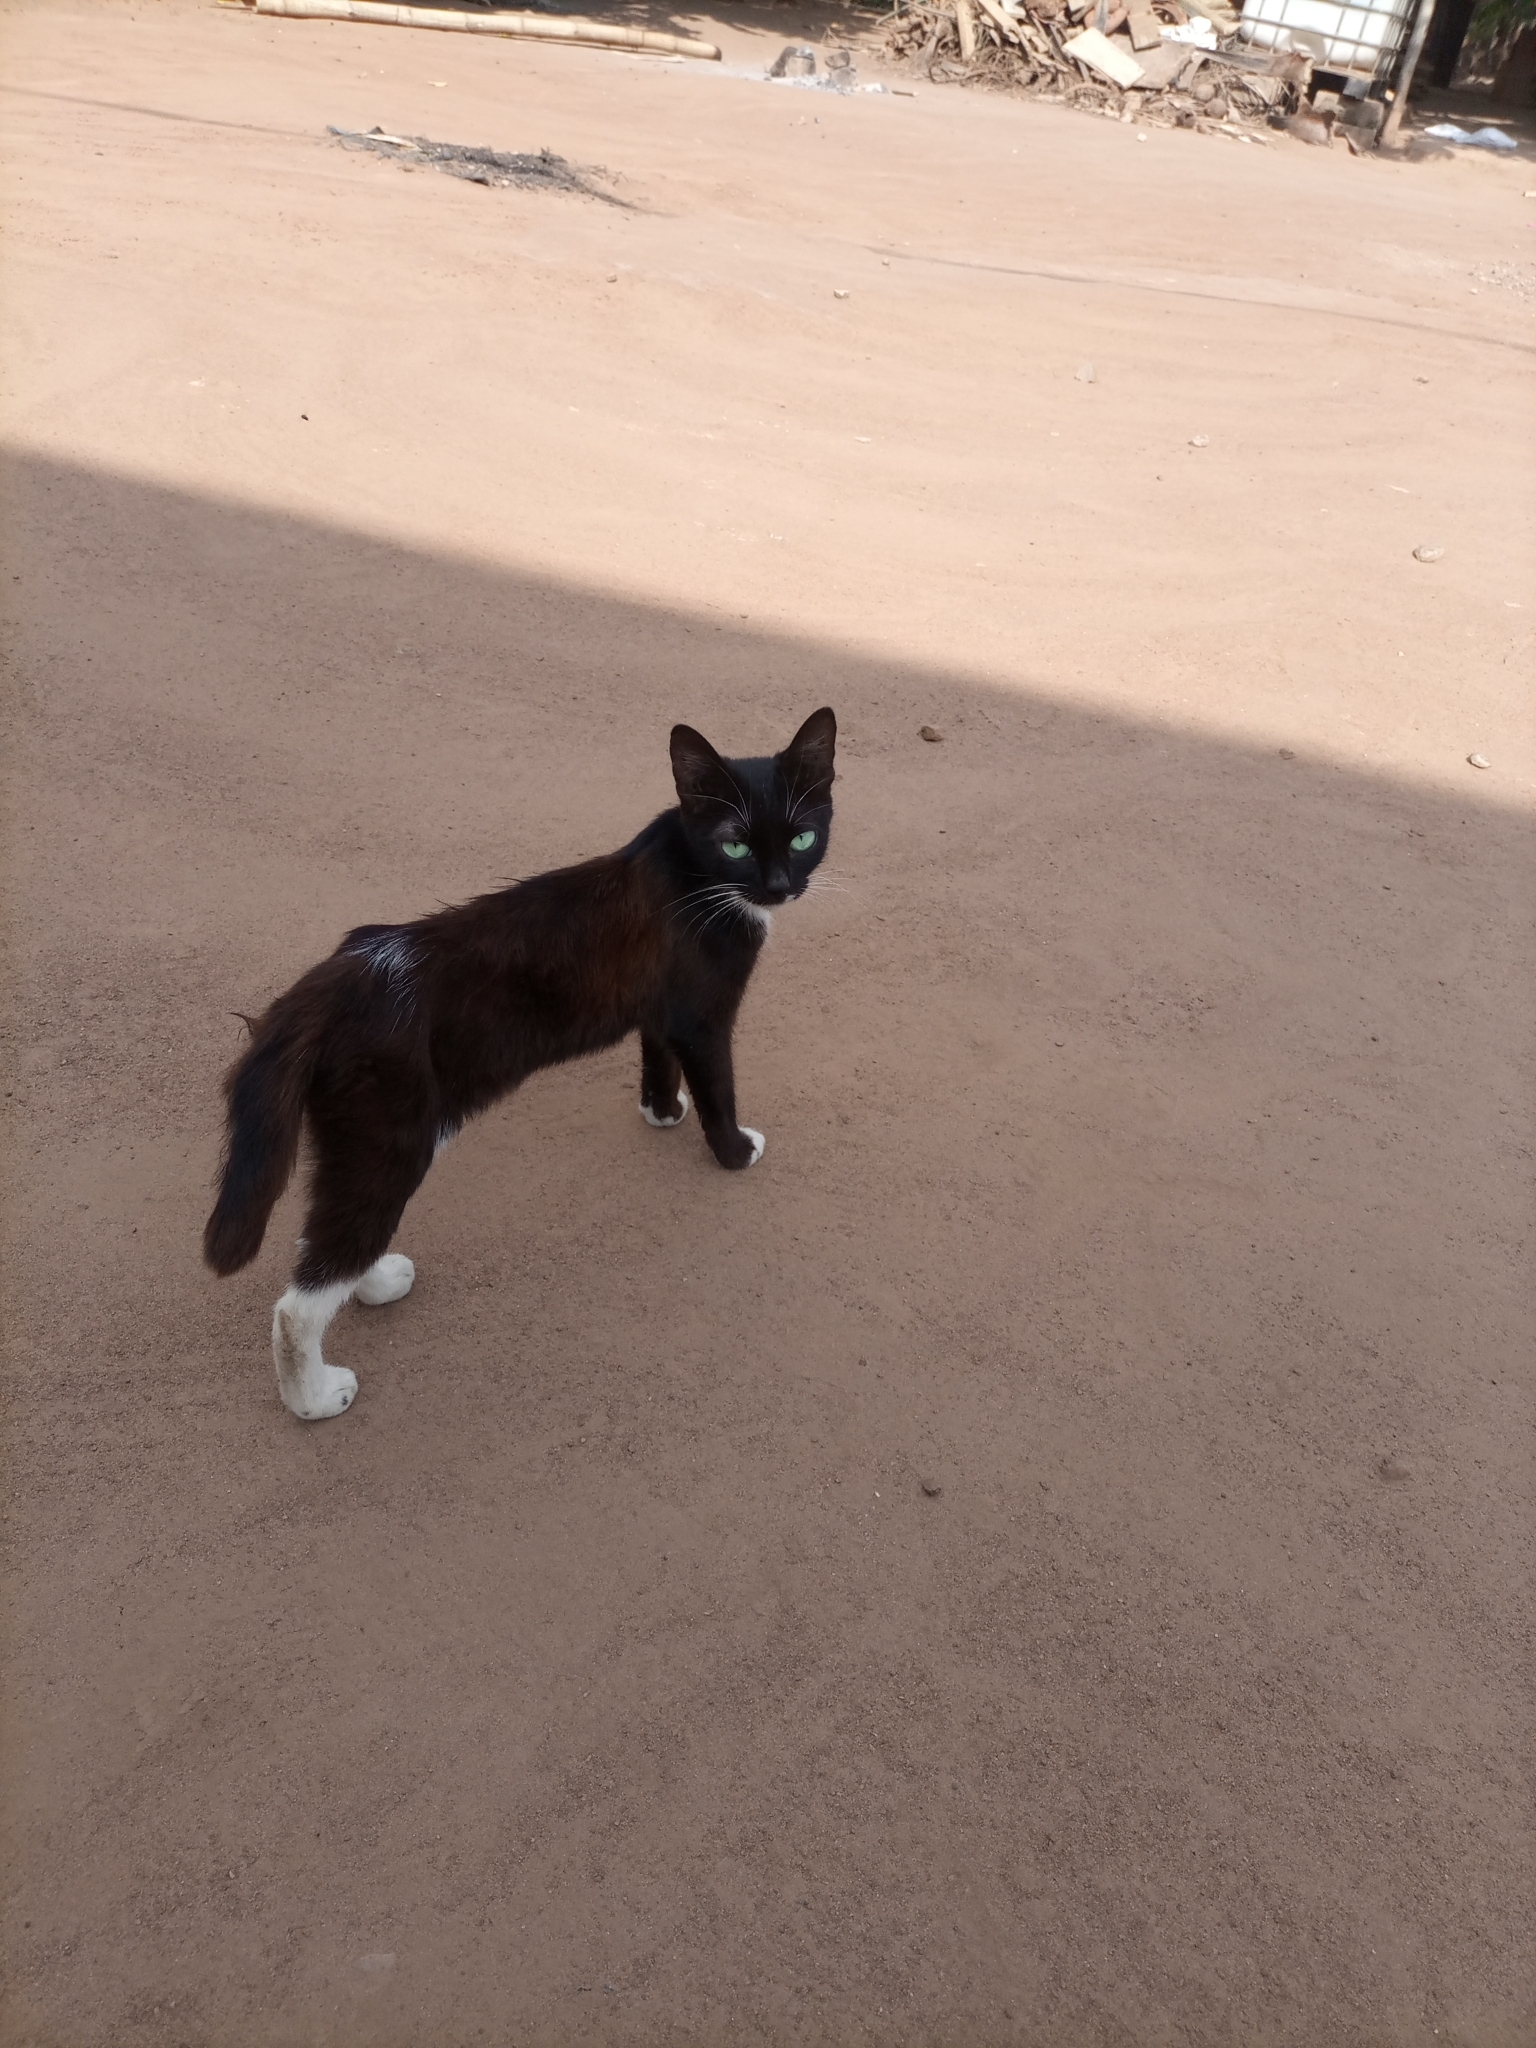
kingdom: Animalia
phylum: Chordata
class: Mammalia
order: Carnivora
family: Felidae
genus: Felis
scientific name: Felis catus
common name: Domestic cat
